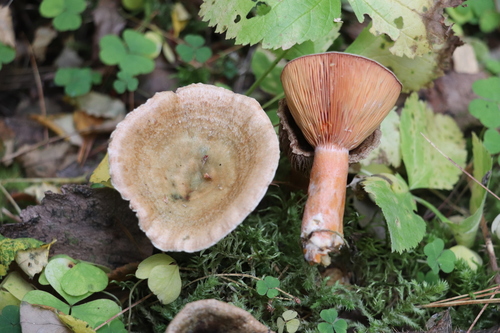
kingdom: Fungi
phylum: Basidiomycota
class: Agaricomycetes
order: Russulales
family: Russulaceae
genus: Lactarius
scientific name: Lactarius deterrimus
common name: False saffron milkcap
